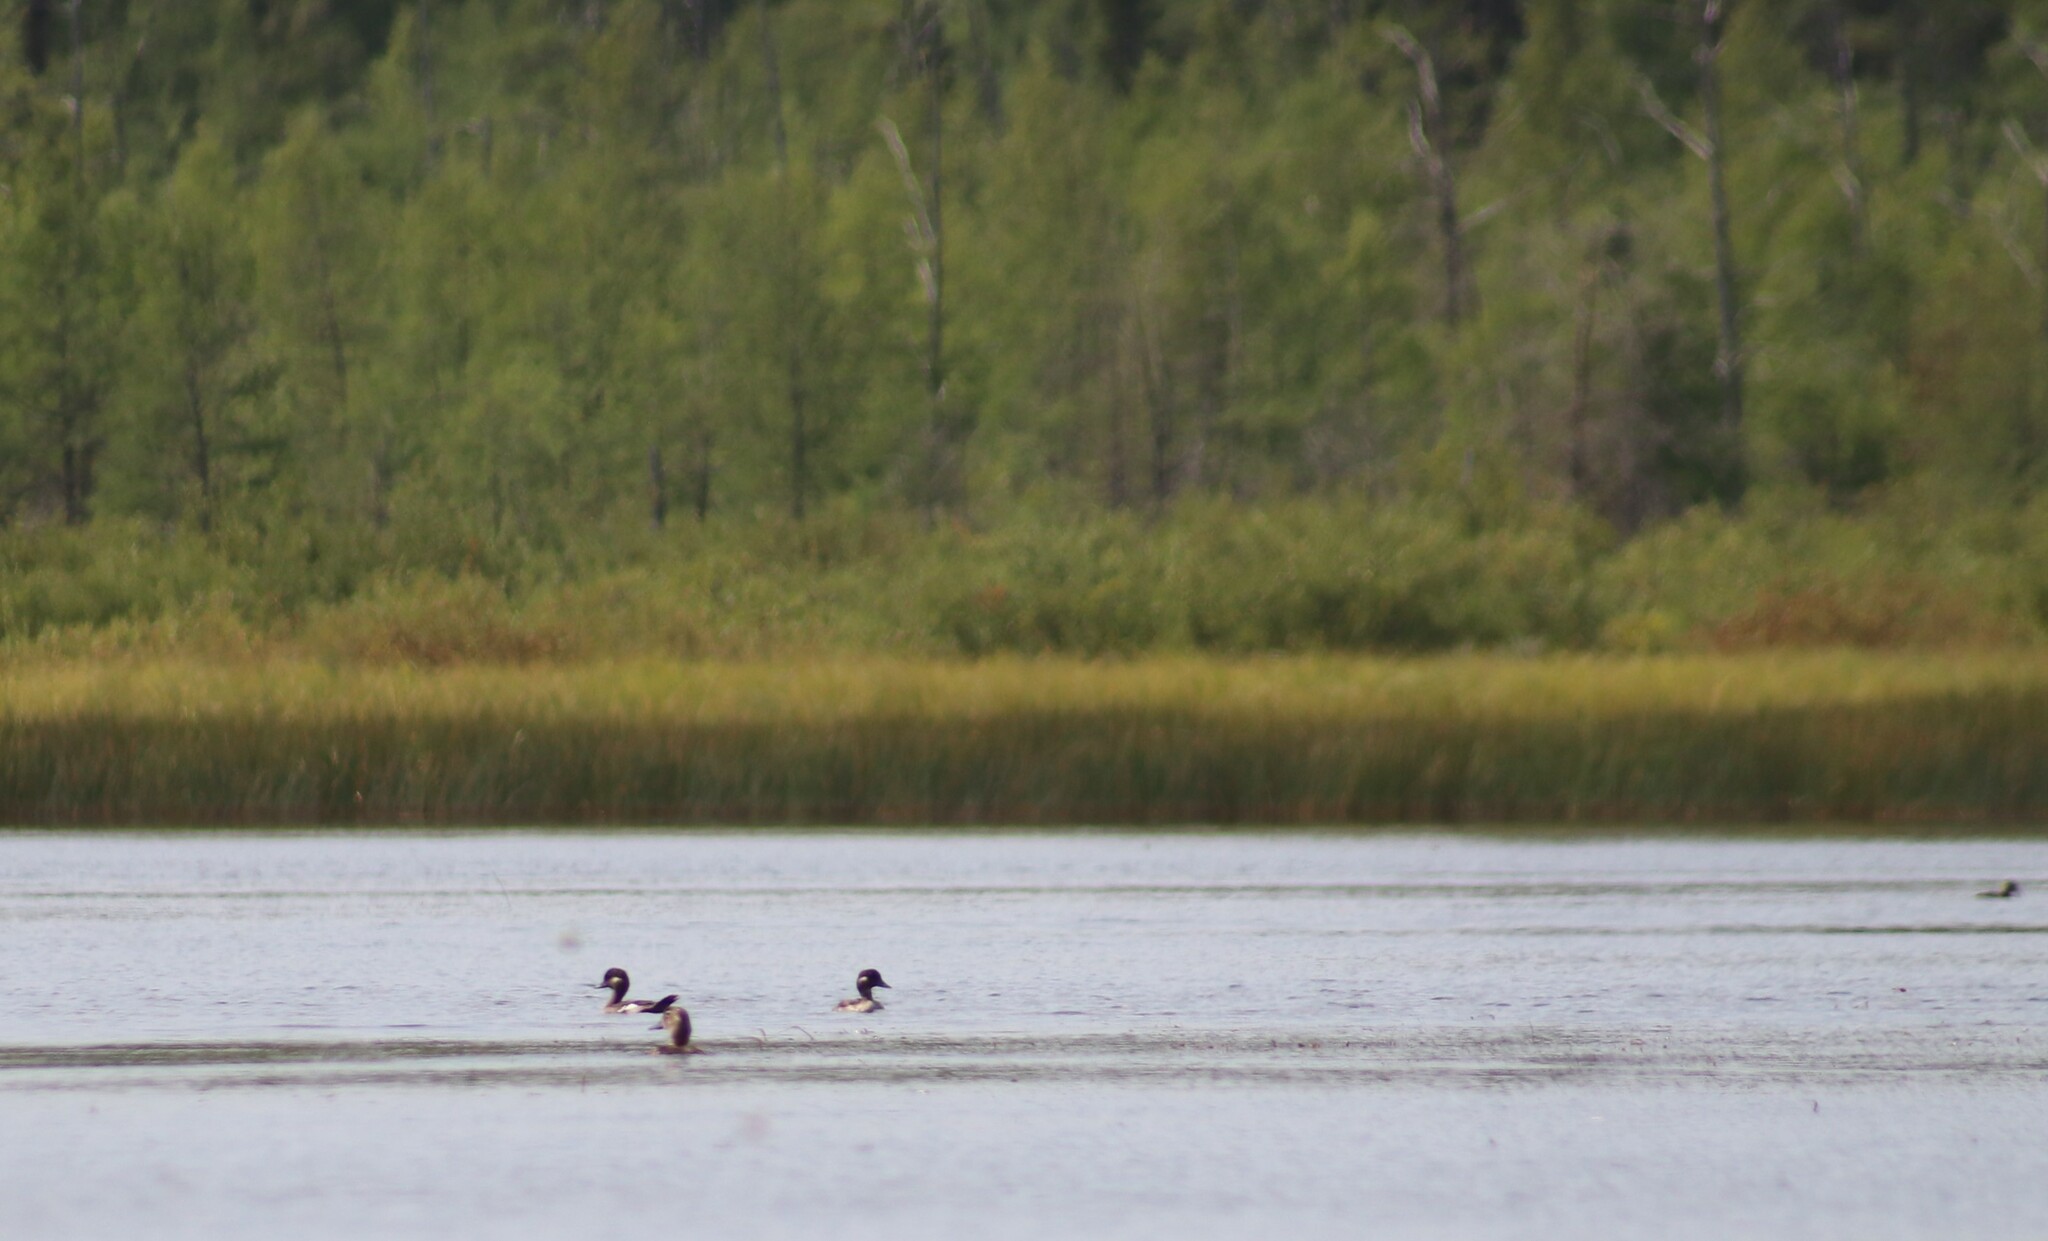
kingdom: Animalia
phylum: Chordata
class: Aves
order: Anseriformes
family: Anatidae
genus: Bucephala
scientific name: Bucephala albeola
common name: Bufflehead
